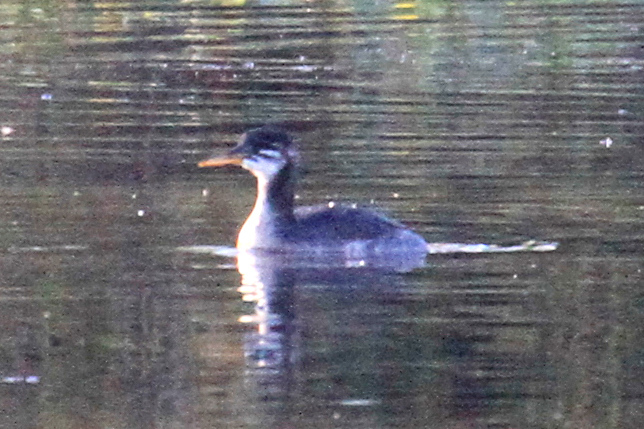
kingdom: Animalia
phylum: Chordata
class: Aves
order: Podicipediformes
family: Podicipedidae
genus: Podiceps
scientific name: Podiceps grisegena
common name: Red-necked grebe
